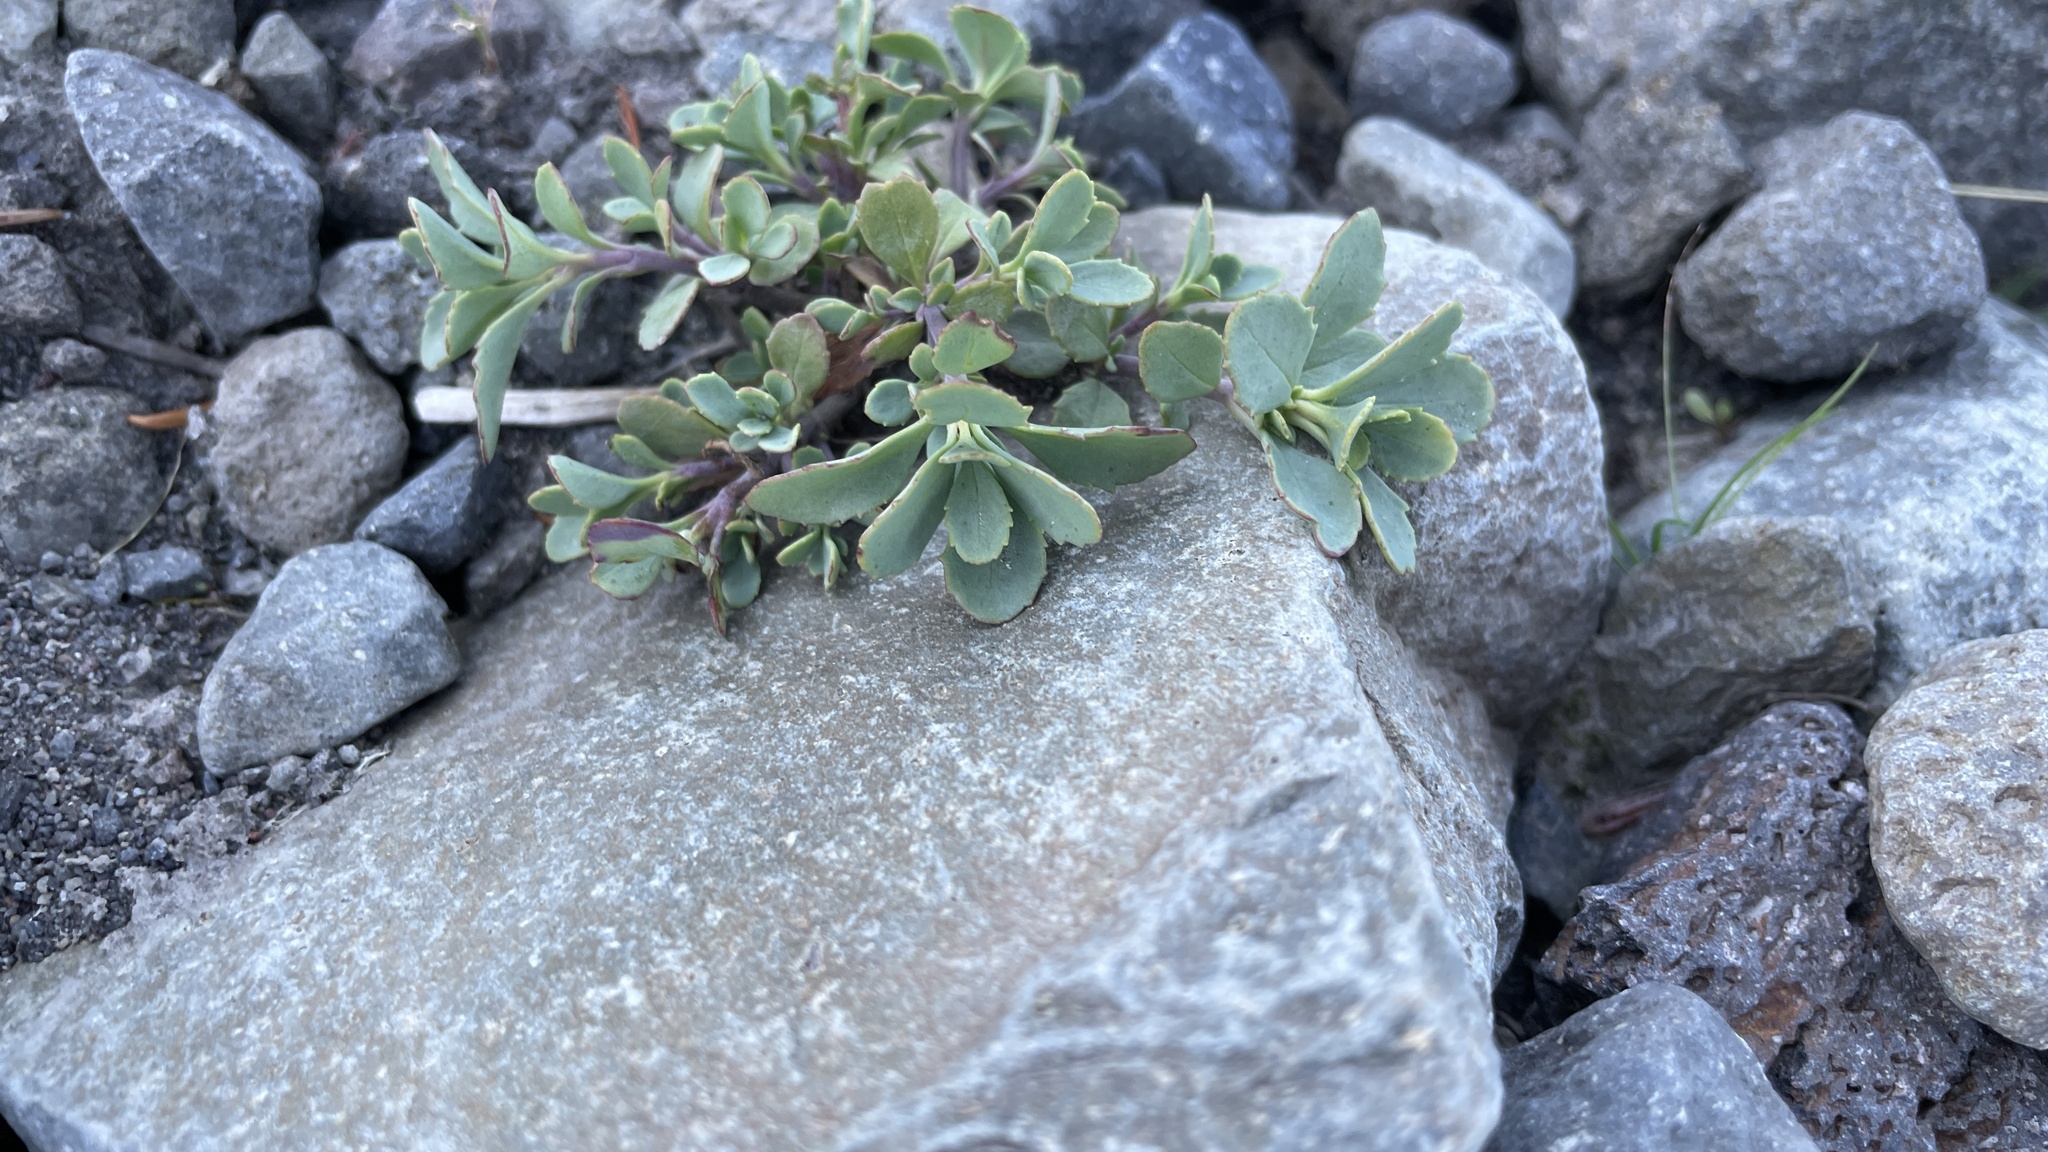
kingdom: Plantae
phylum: Tracheophyta
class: Magnoliopsida
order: Lamiales
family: Plantaginaceae
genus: Penstemon
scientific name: Penstemon rupicola
